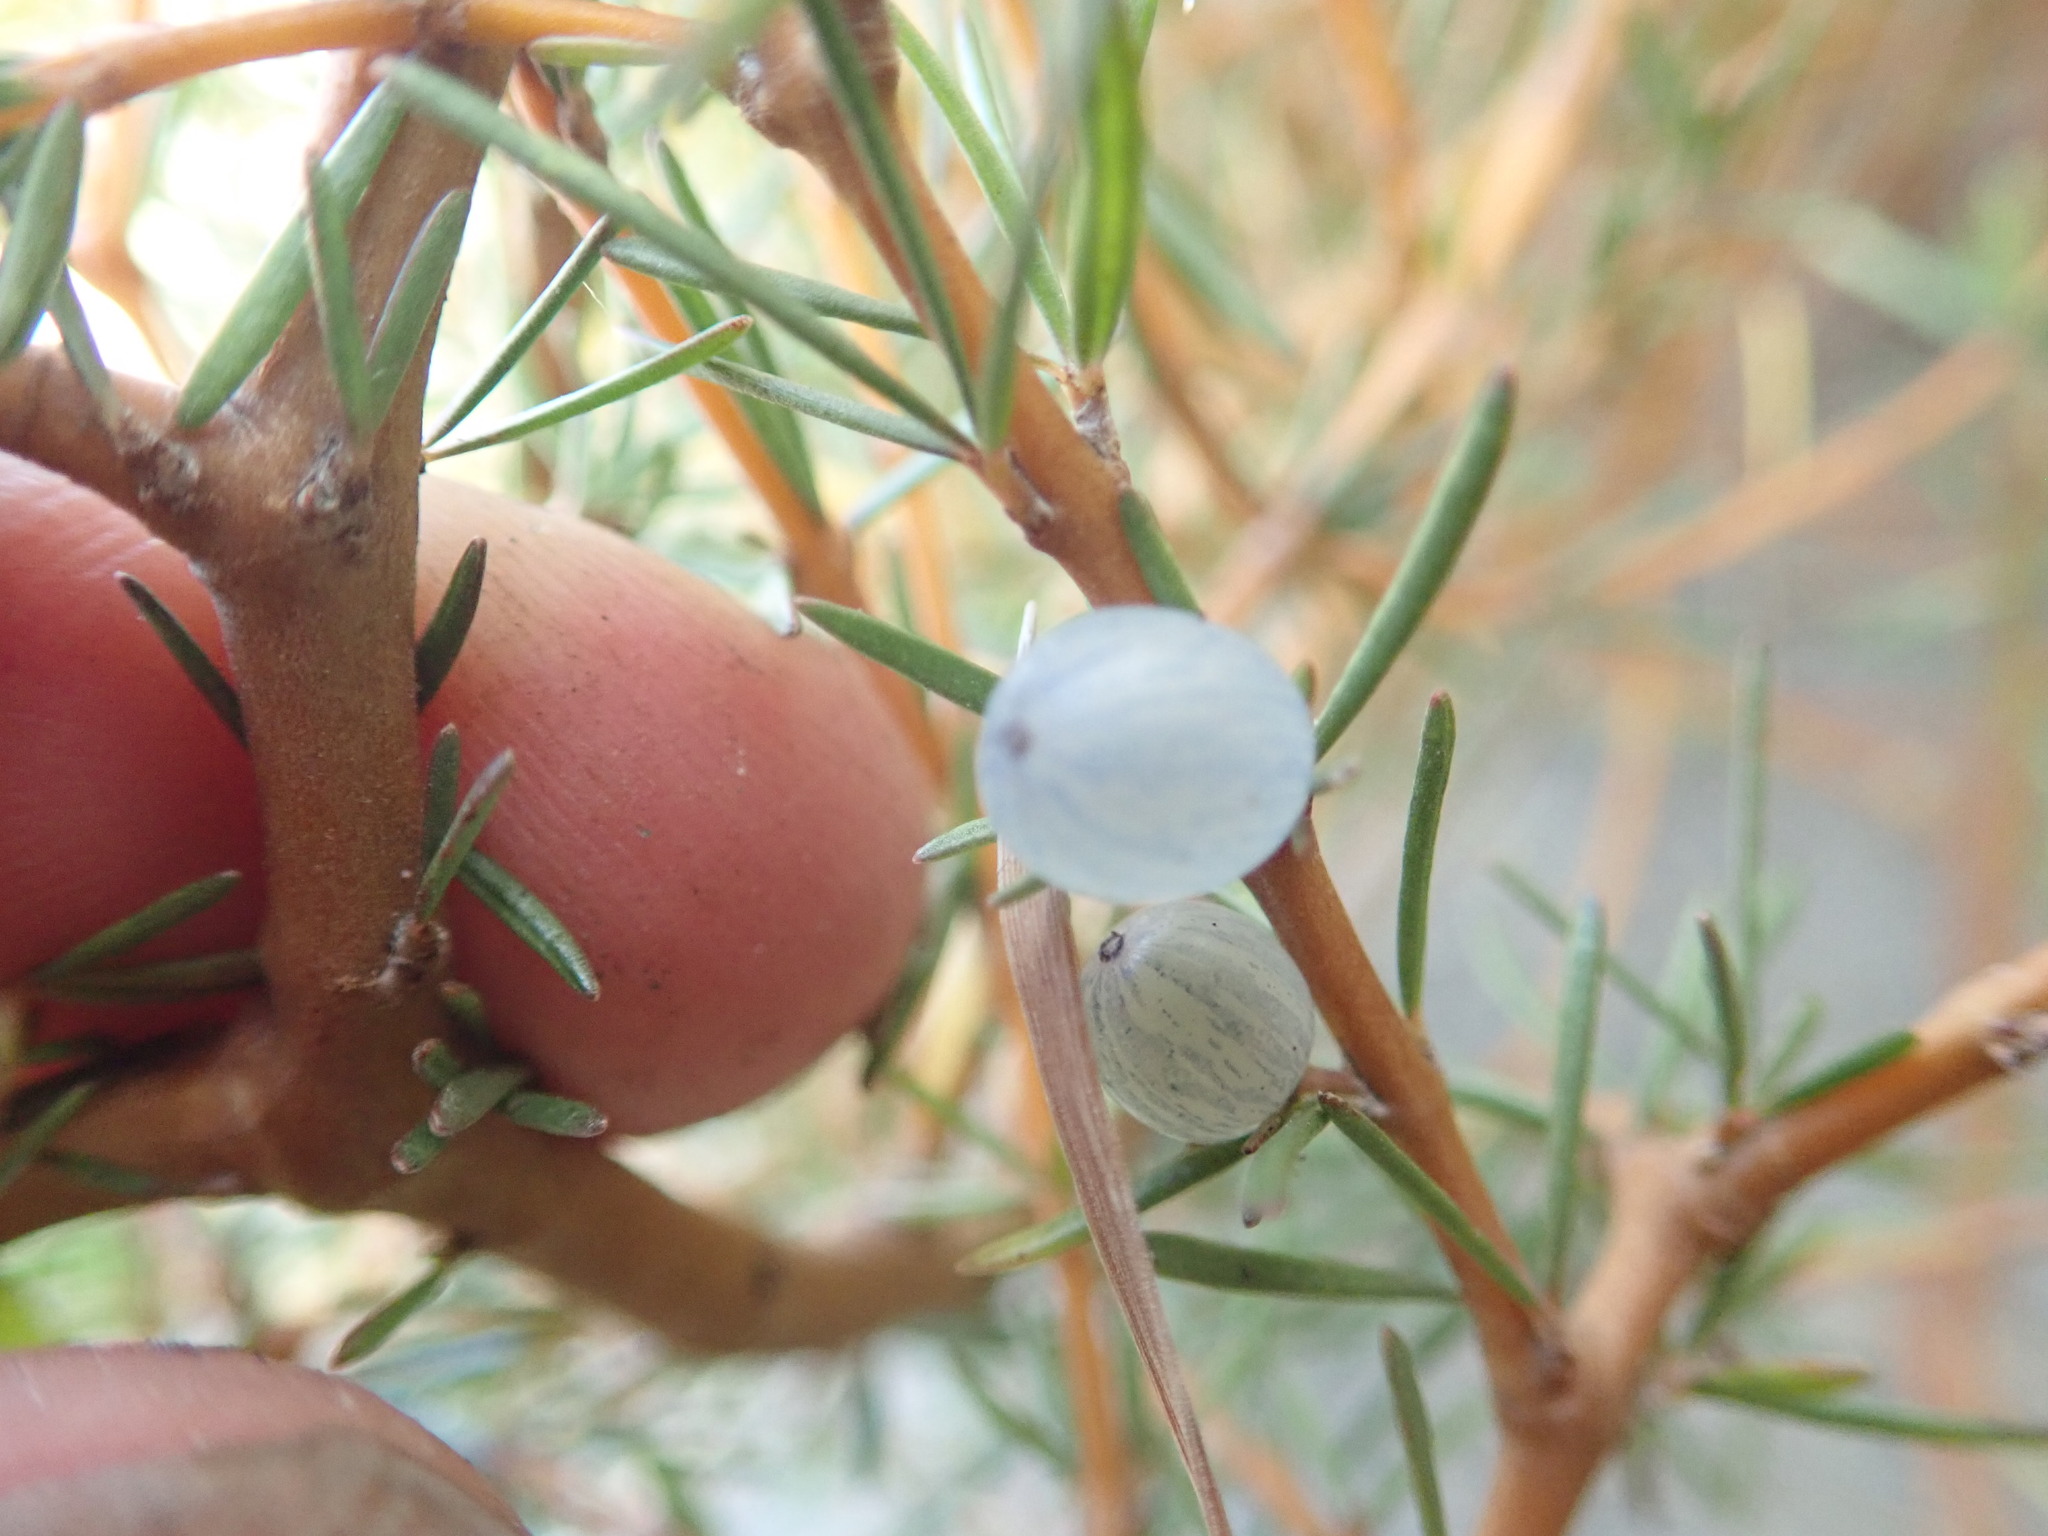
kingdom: Plantae
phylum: Tracheophyta
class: Magnoliopsida
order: Gentianales
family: Rubiaceae
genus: Coprosma
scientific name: Coprosma acerosa
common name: Sand coprosma
